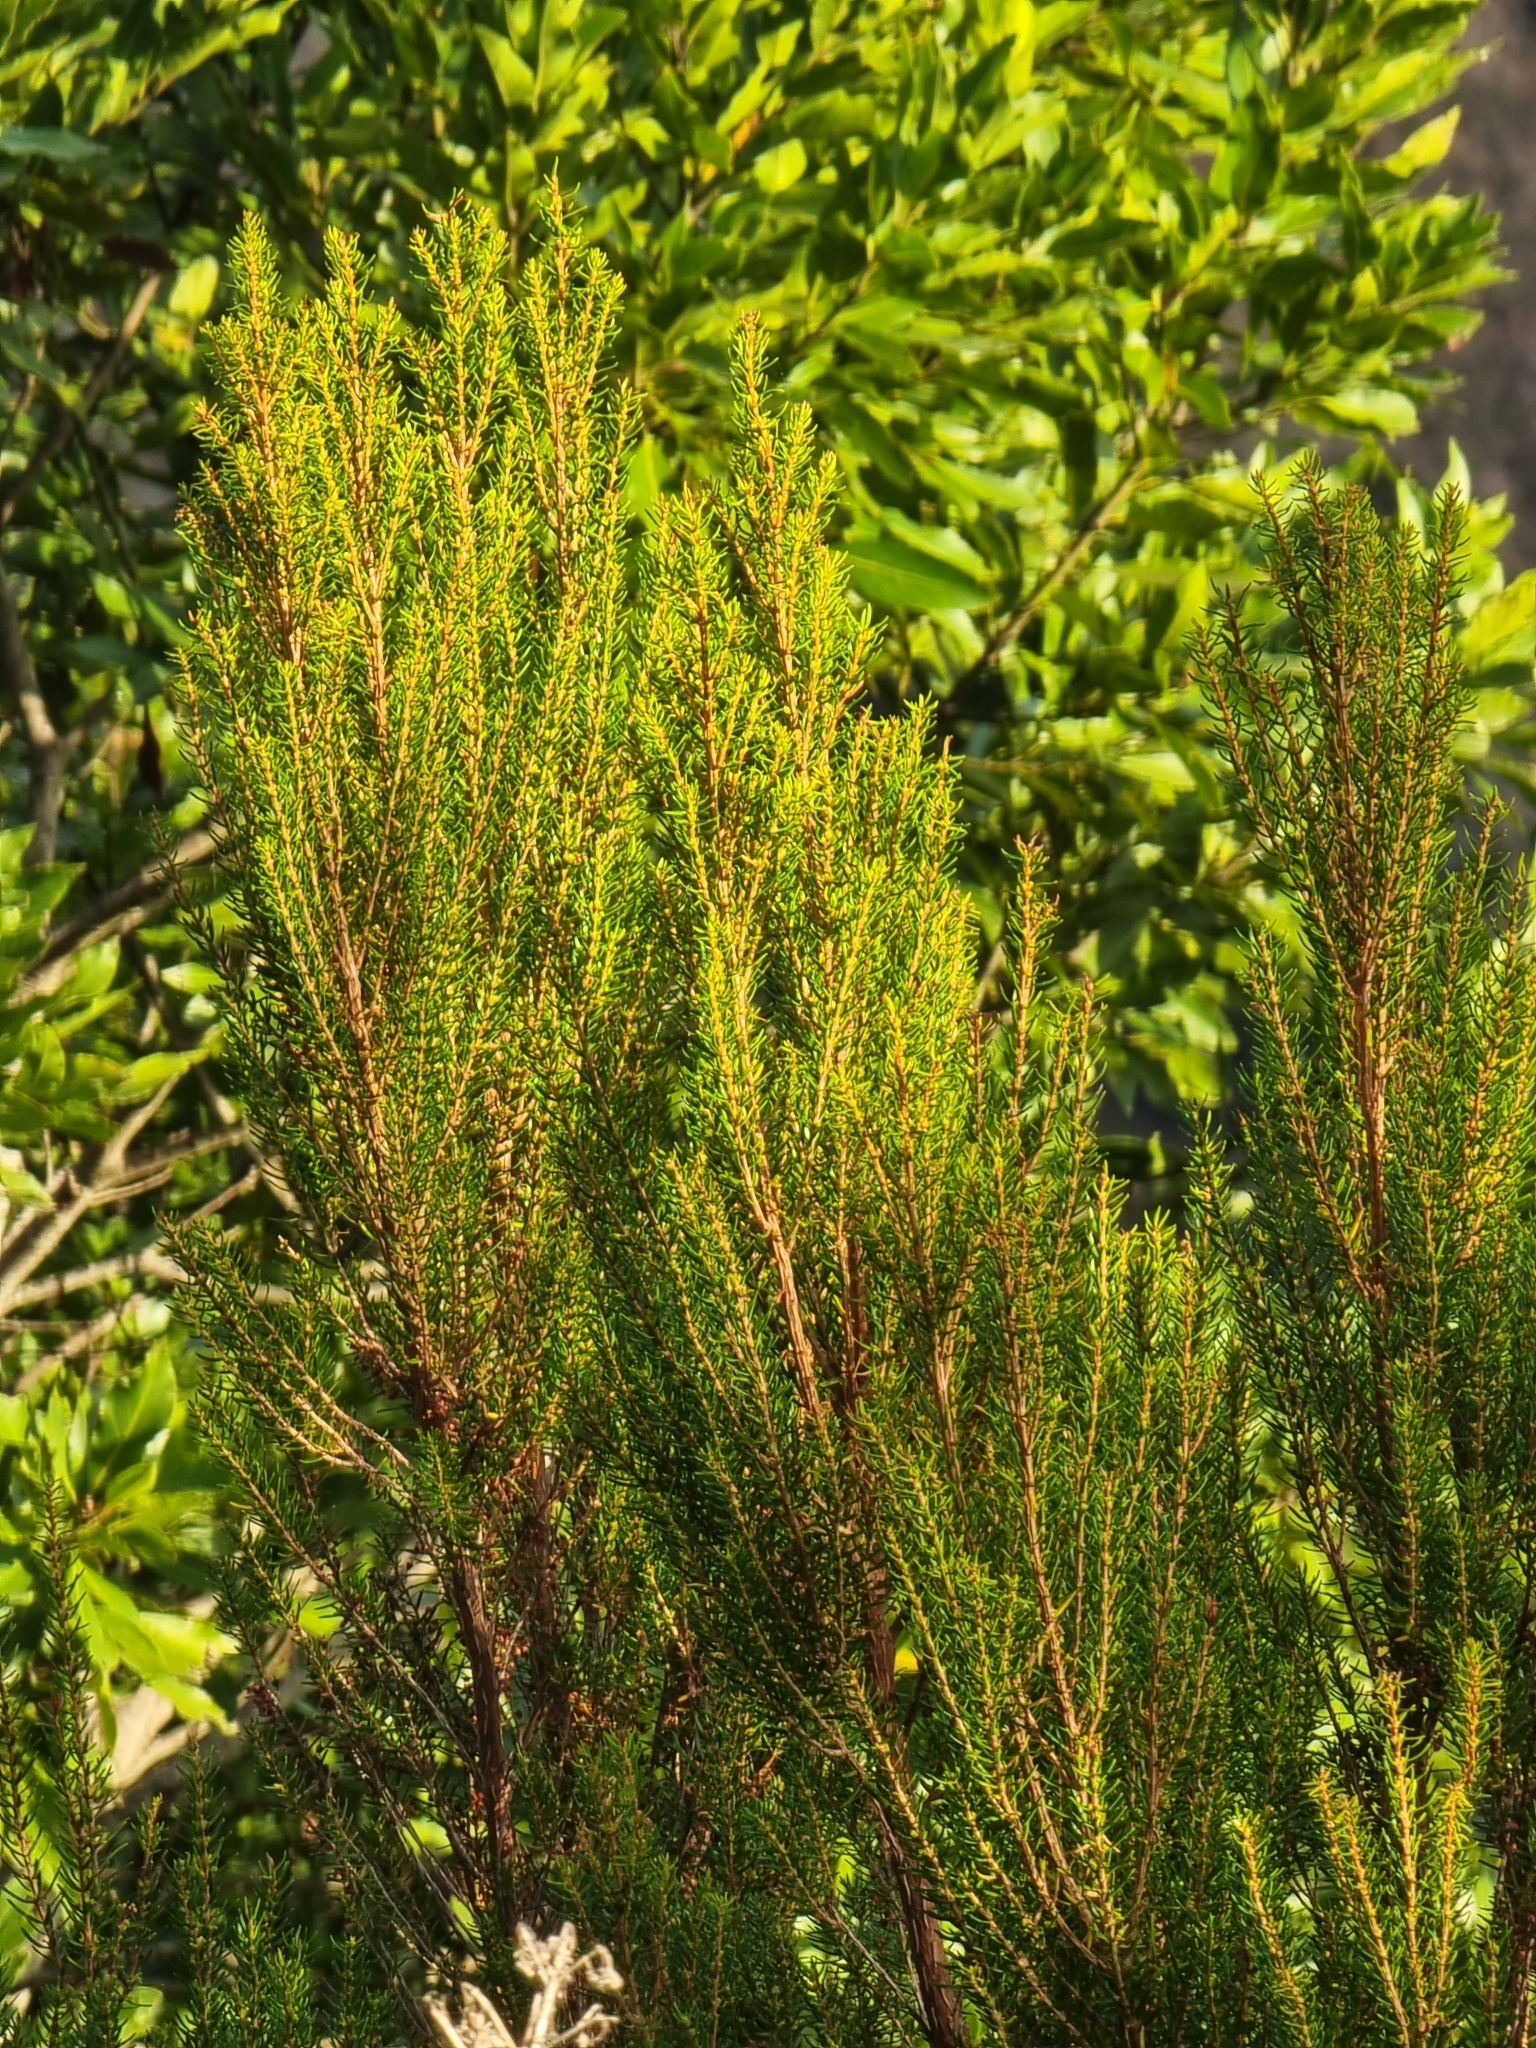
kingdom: Plantae
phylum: Tracheophyta
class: Magnoliopsida
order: Ericales
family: Ericaceae
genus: Erica
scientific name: Erica platycodon
